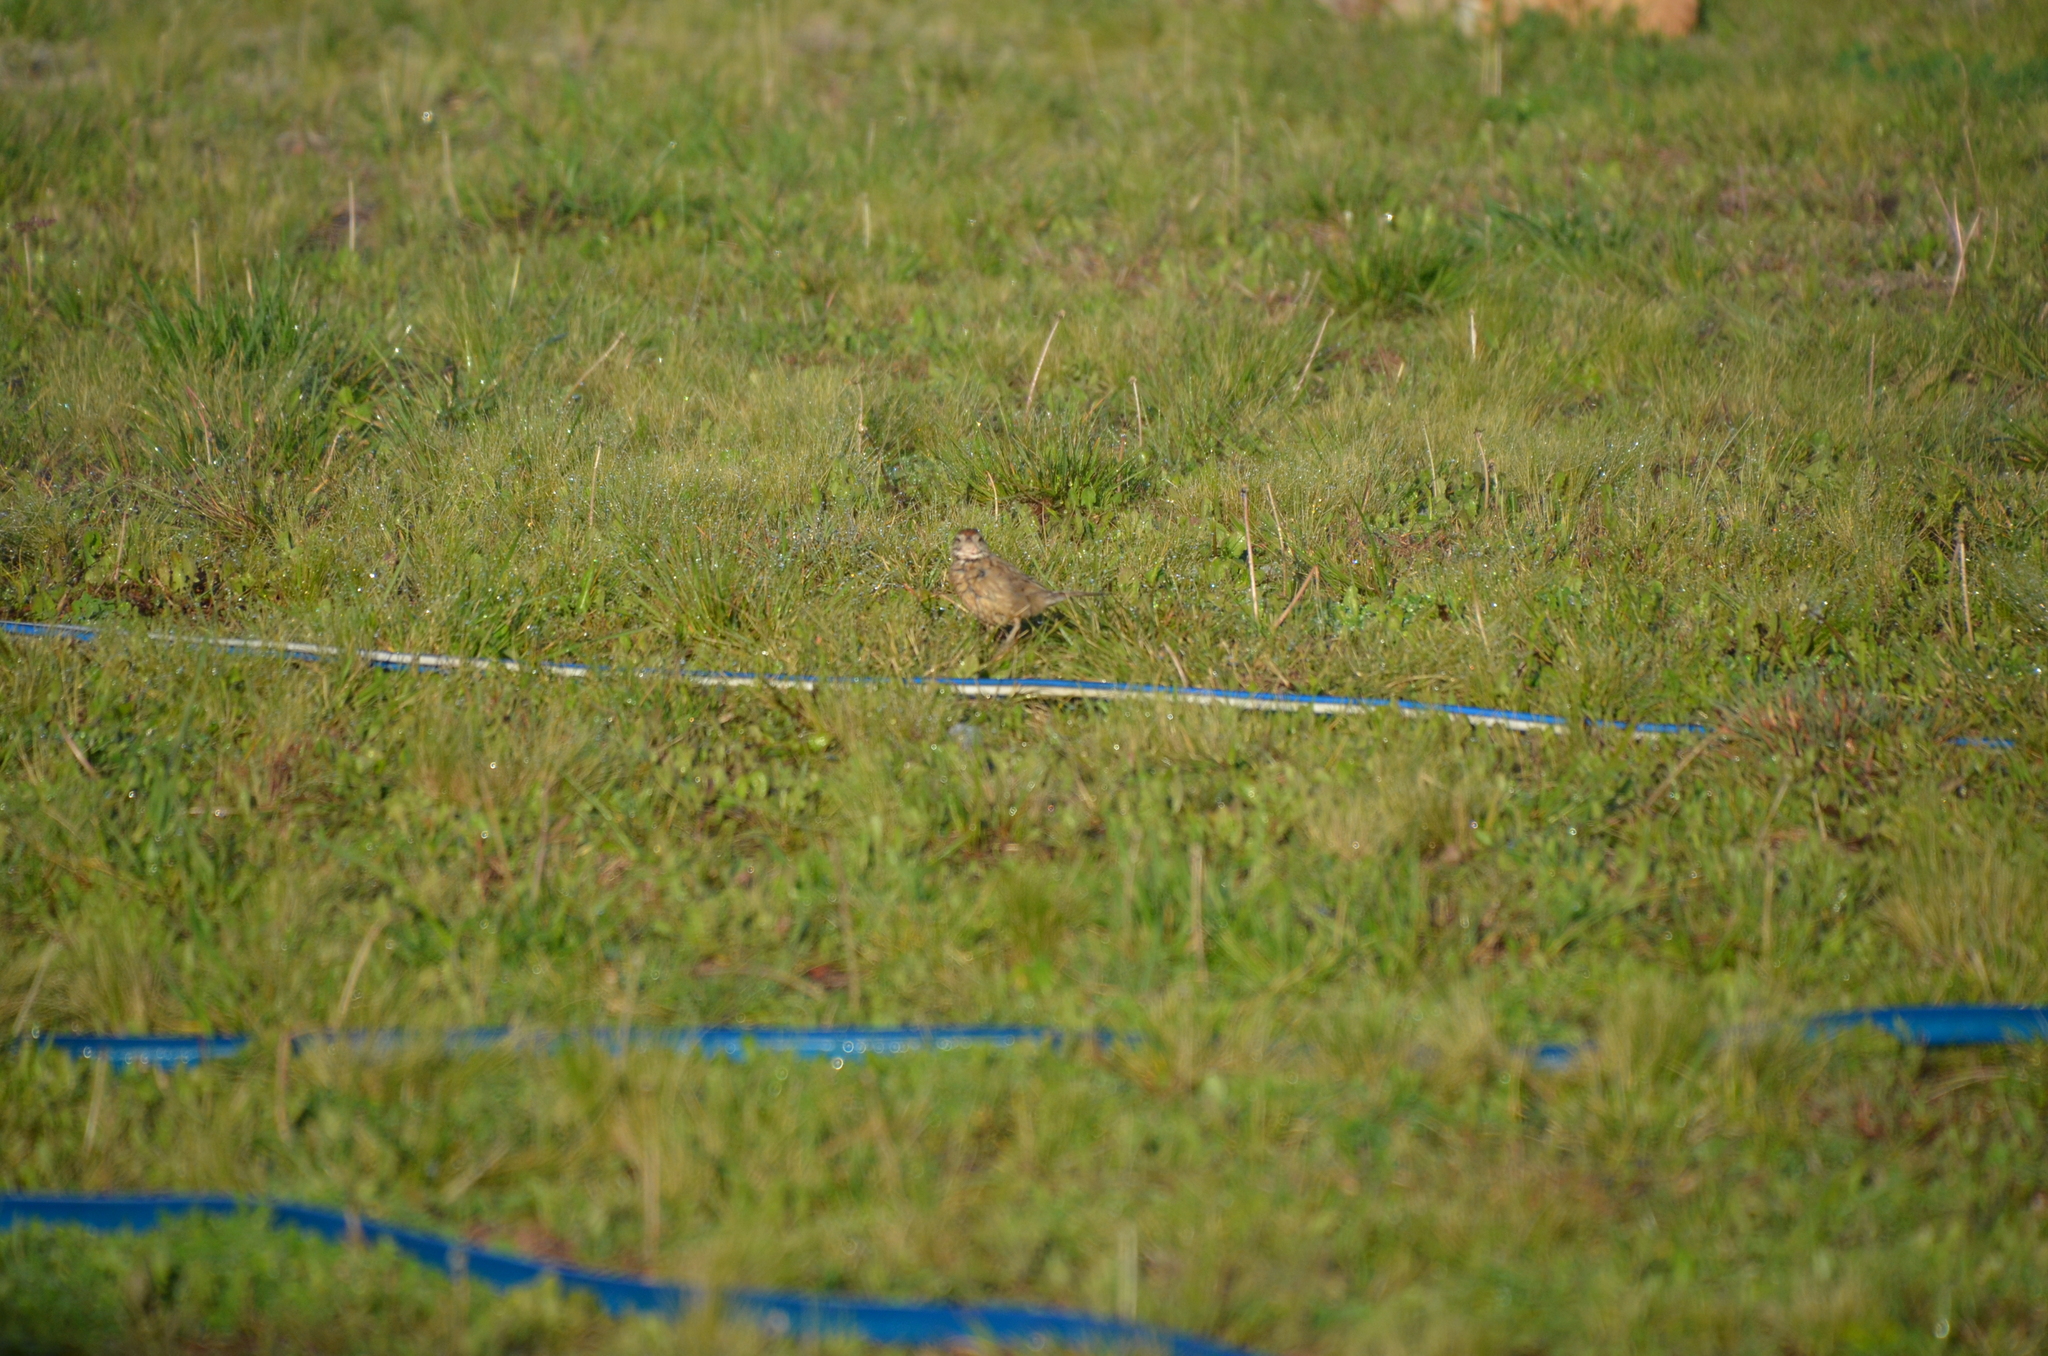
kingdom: Animalia
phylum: Chordata
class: Aves
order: Passeriformes
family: Furnariidae
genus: Anumbius
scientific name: Anumbius annumbi
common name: Firewood-gatherer
